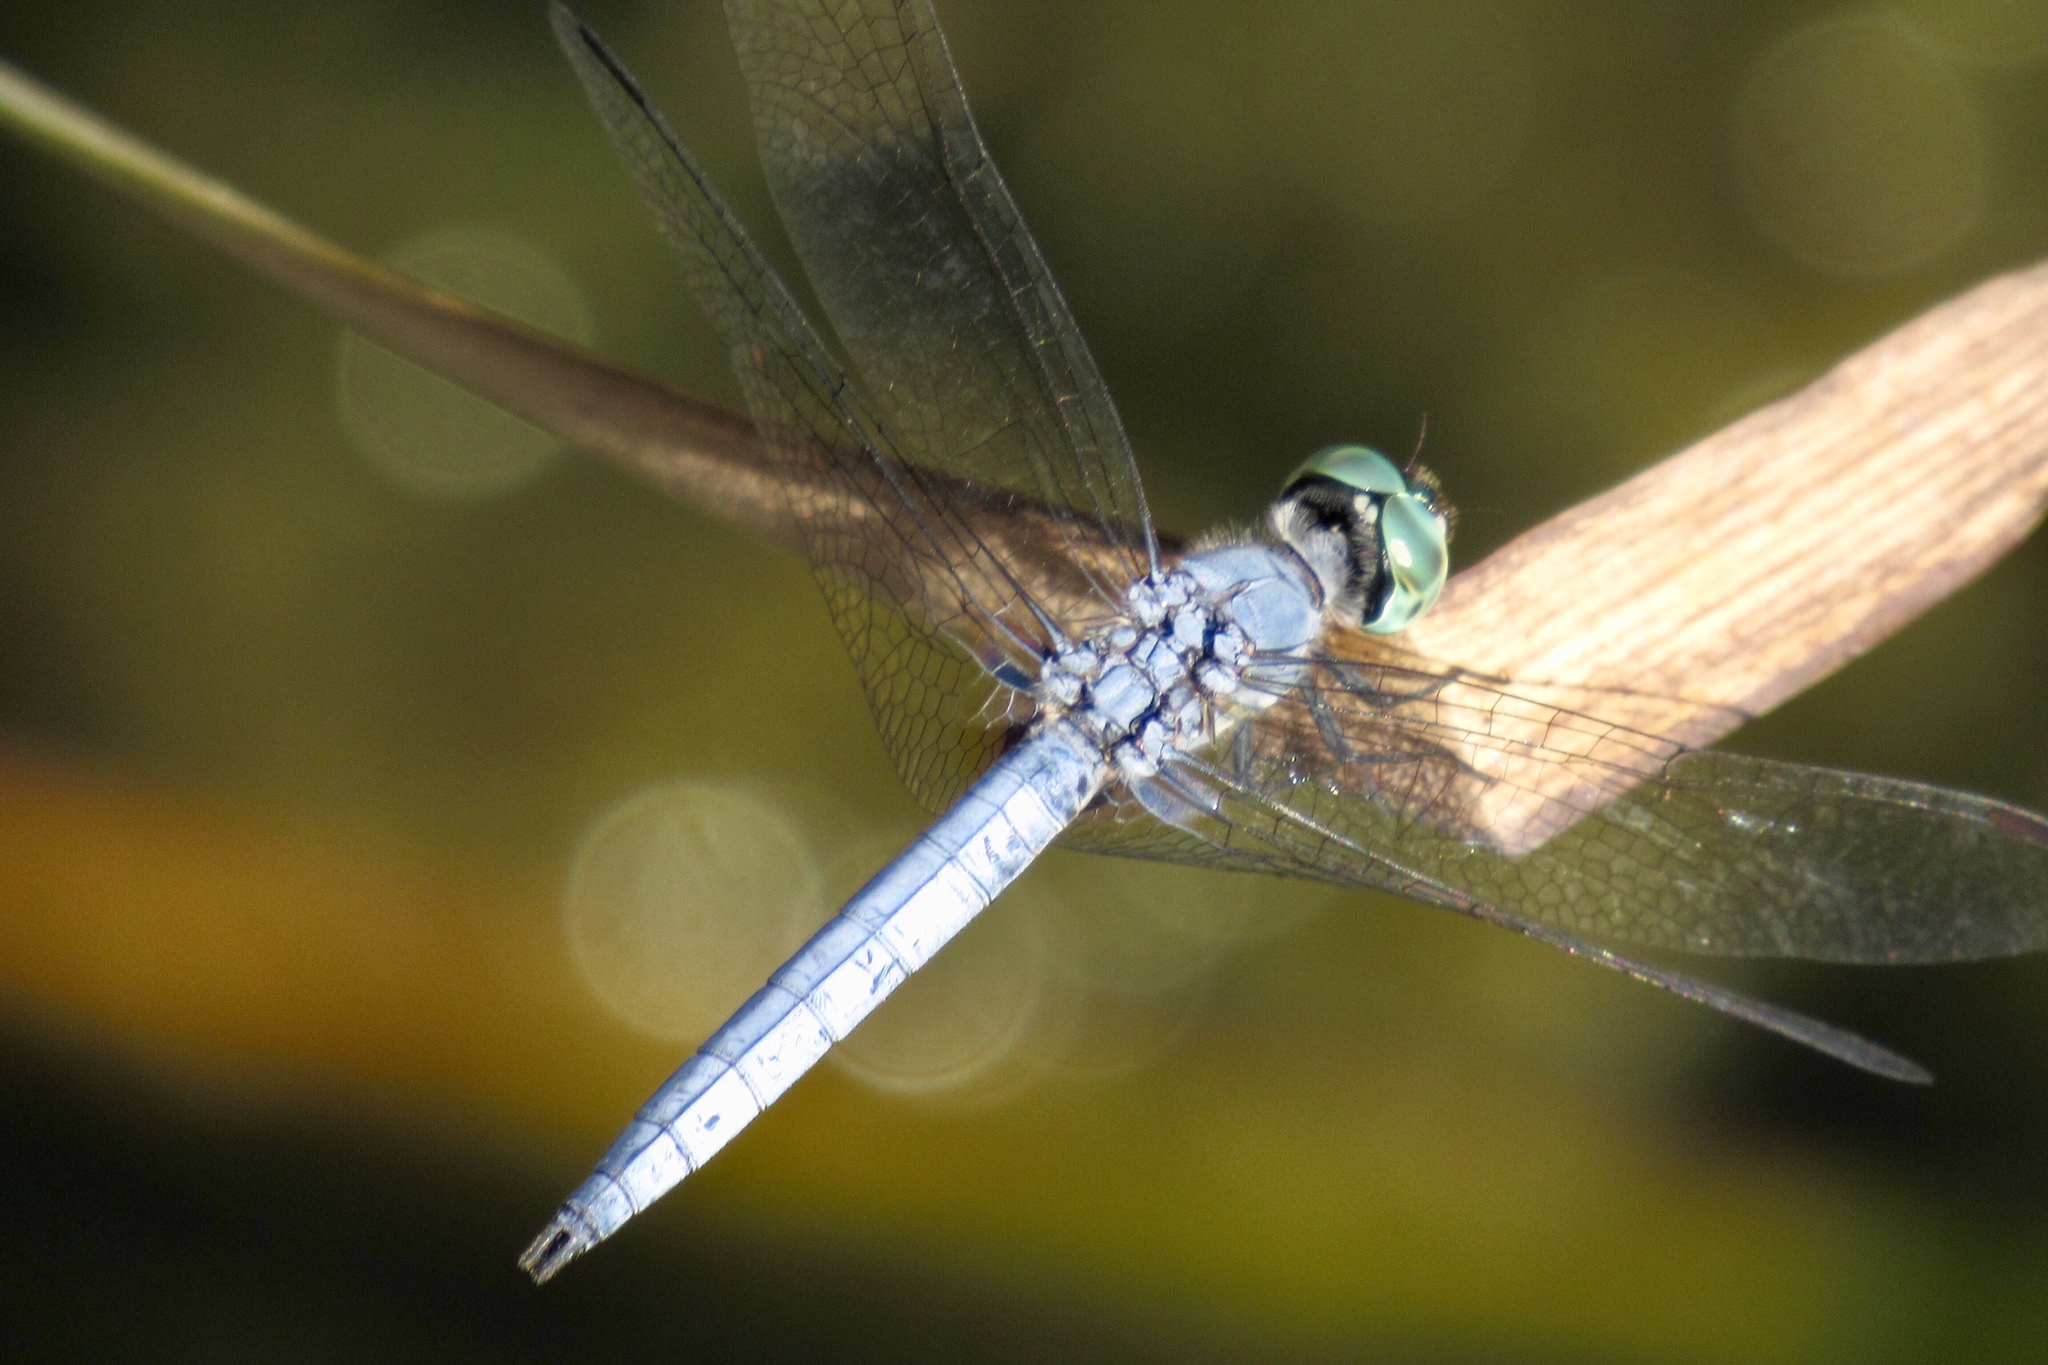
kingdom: Animalia
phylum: Arthropoda
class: Insecta
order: Odonata
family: Libellulidae
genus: Erythemis
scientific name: Erythemis collocata
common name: Western pondhawk
